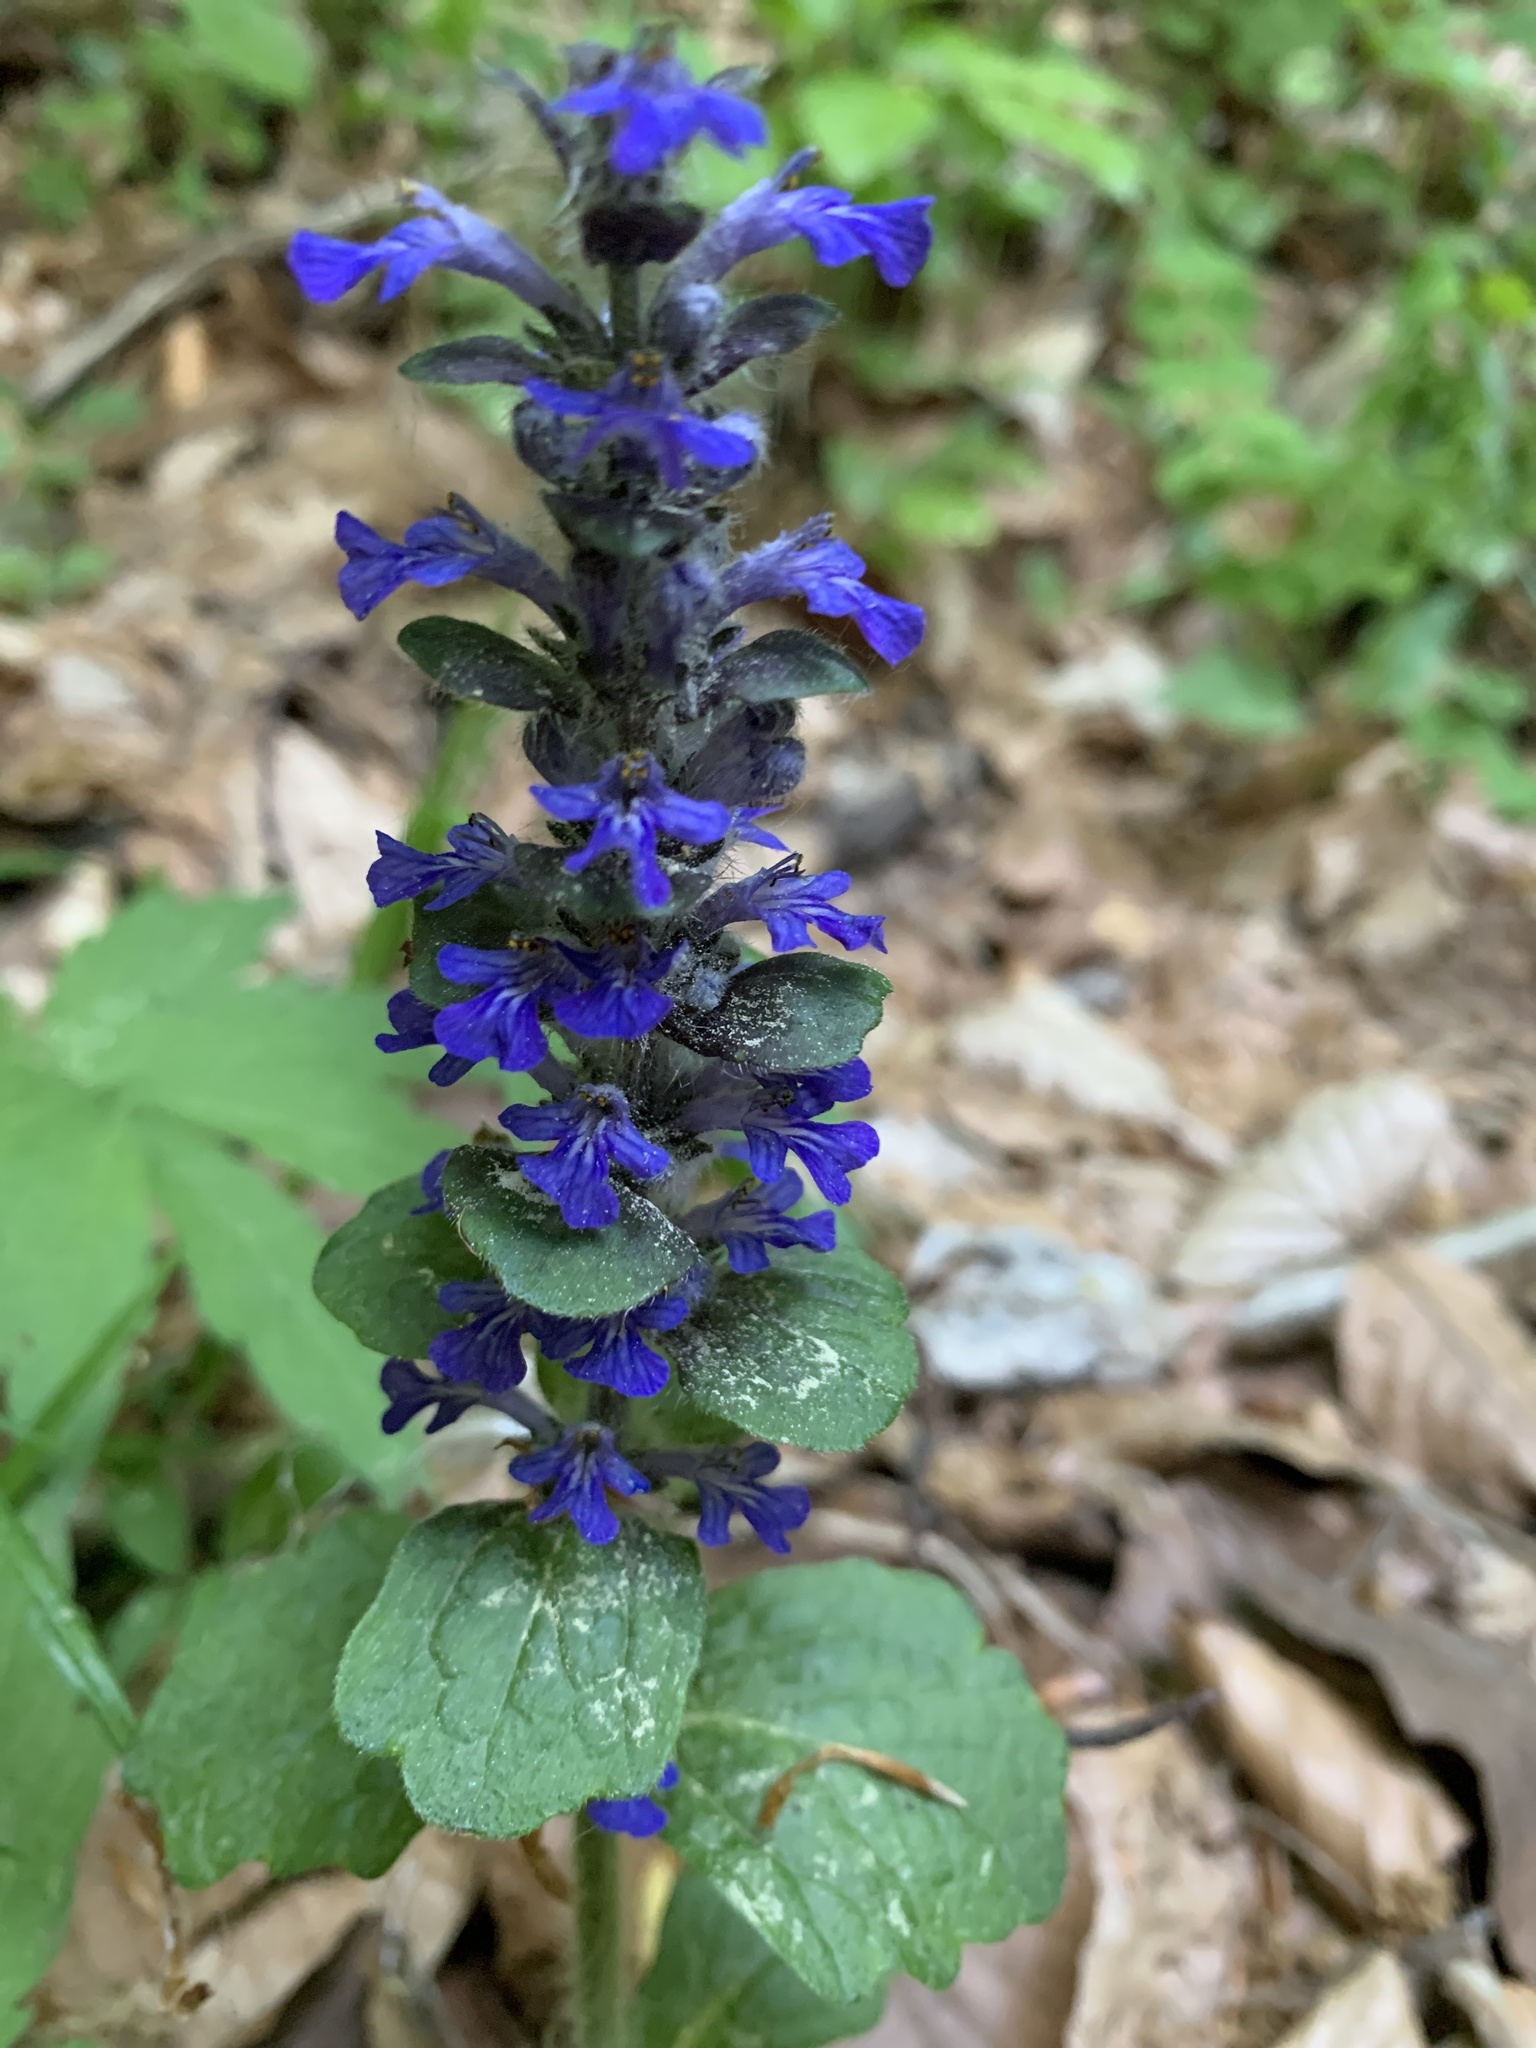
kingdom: Plantae
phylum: Tracheophyta
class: Magnoliopsida
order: Lamiales
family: Lamiaceae
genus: Ajuga
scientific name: Ajuga reptans
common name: Bugle
